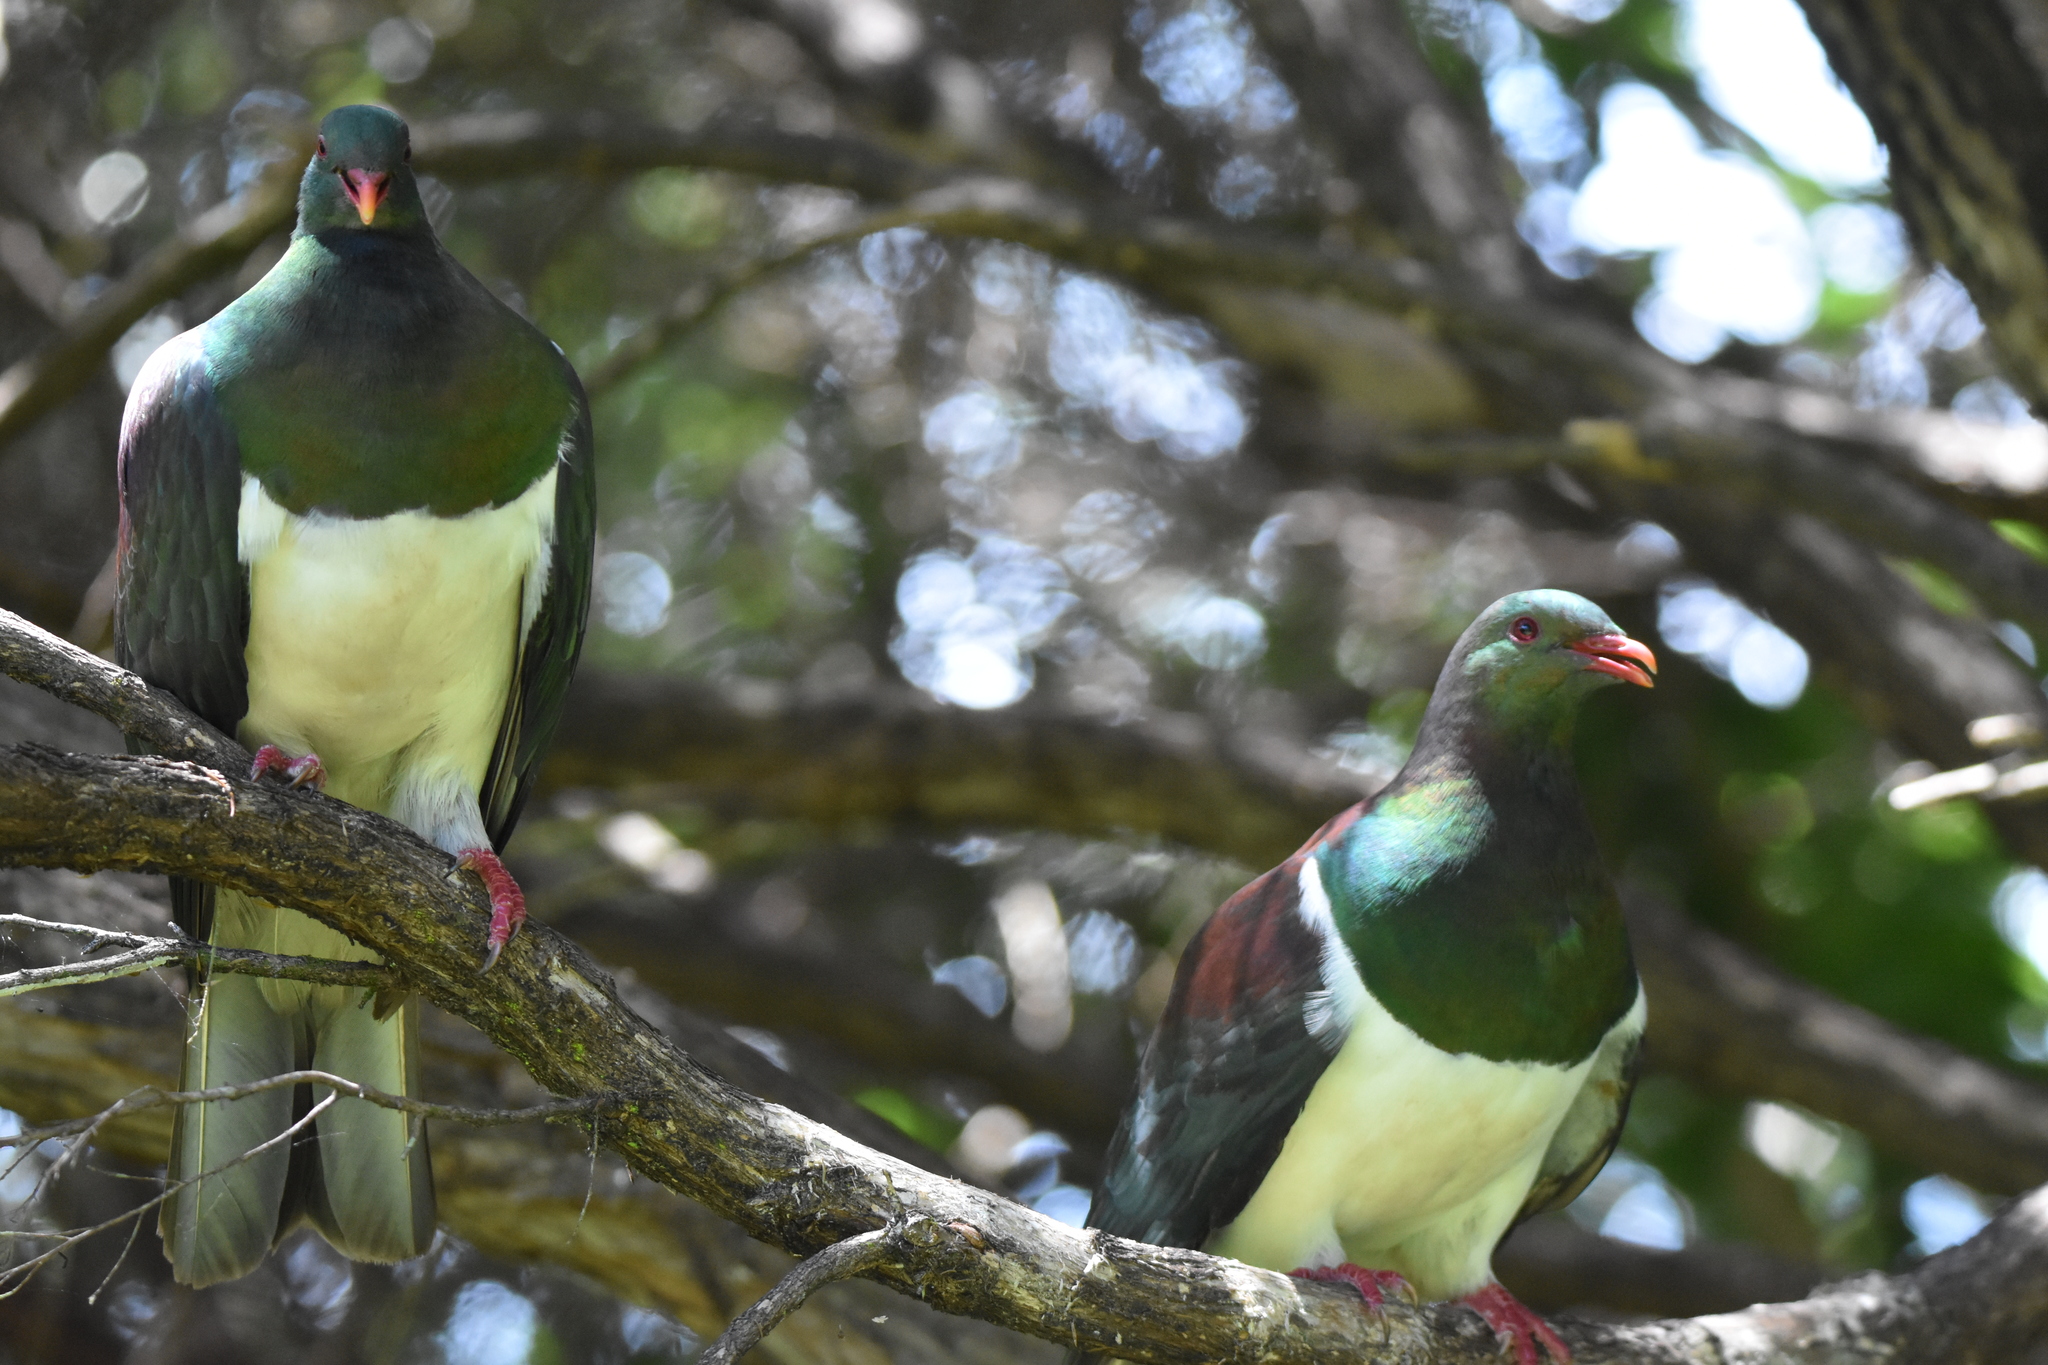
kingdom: Animalia
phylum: Chordata
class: Aves
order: Columbiformes
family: Columbidae
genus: Hemiphaga
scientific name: Hemiphaga novaeseelandiae
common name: New zealand pigeon
